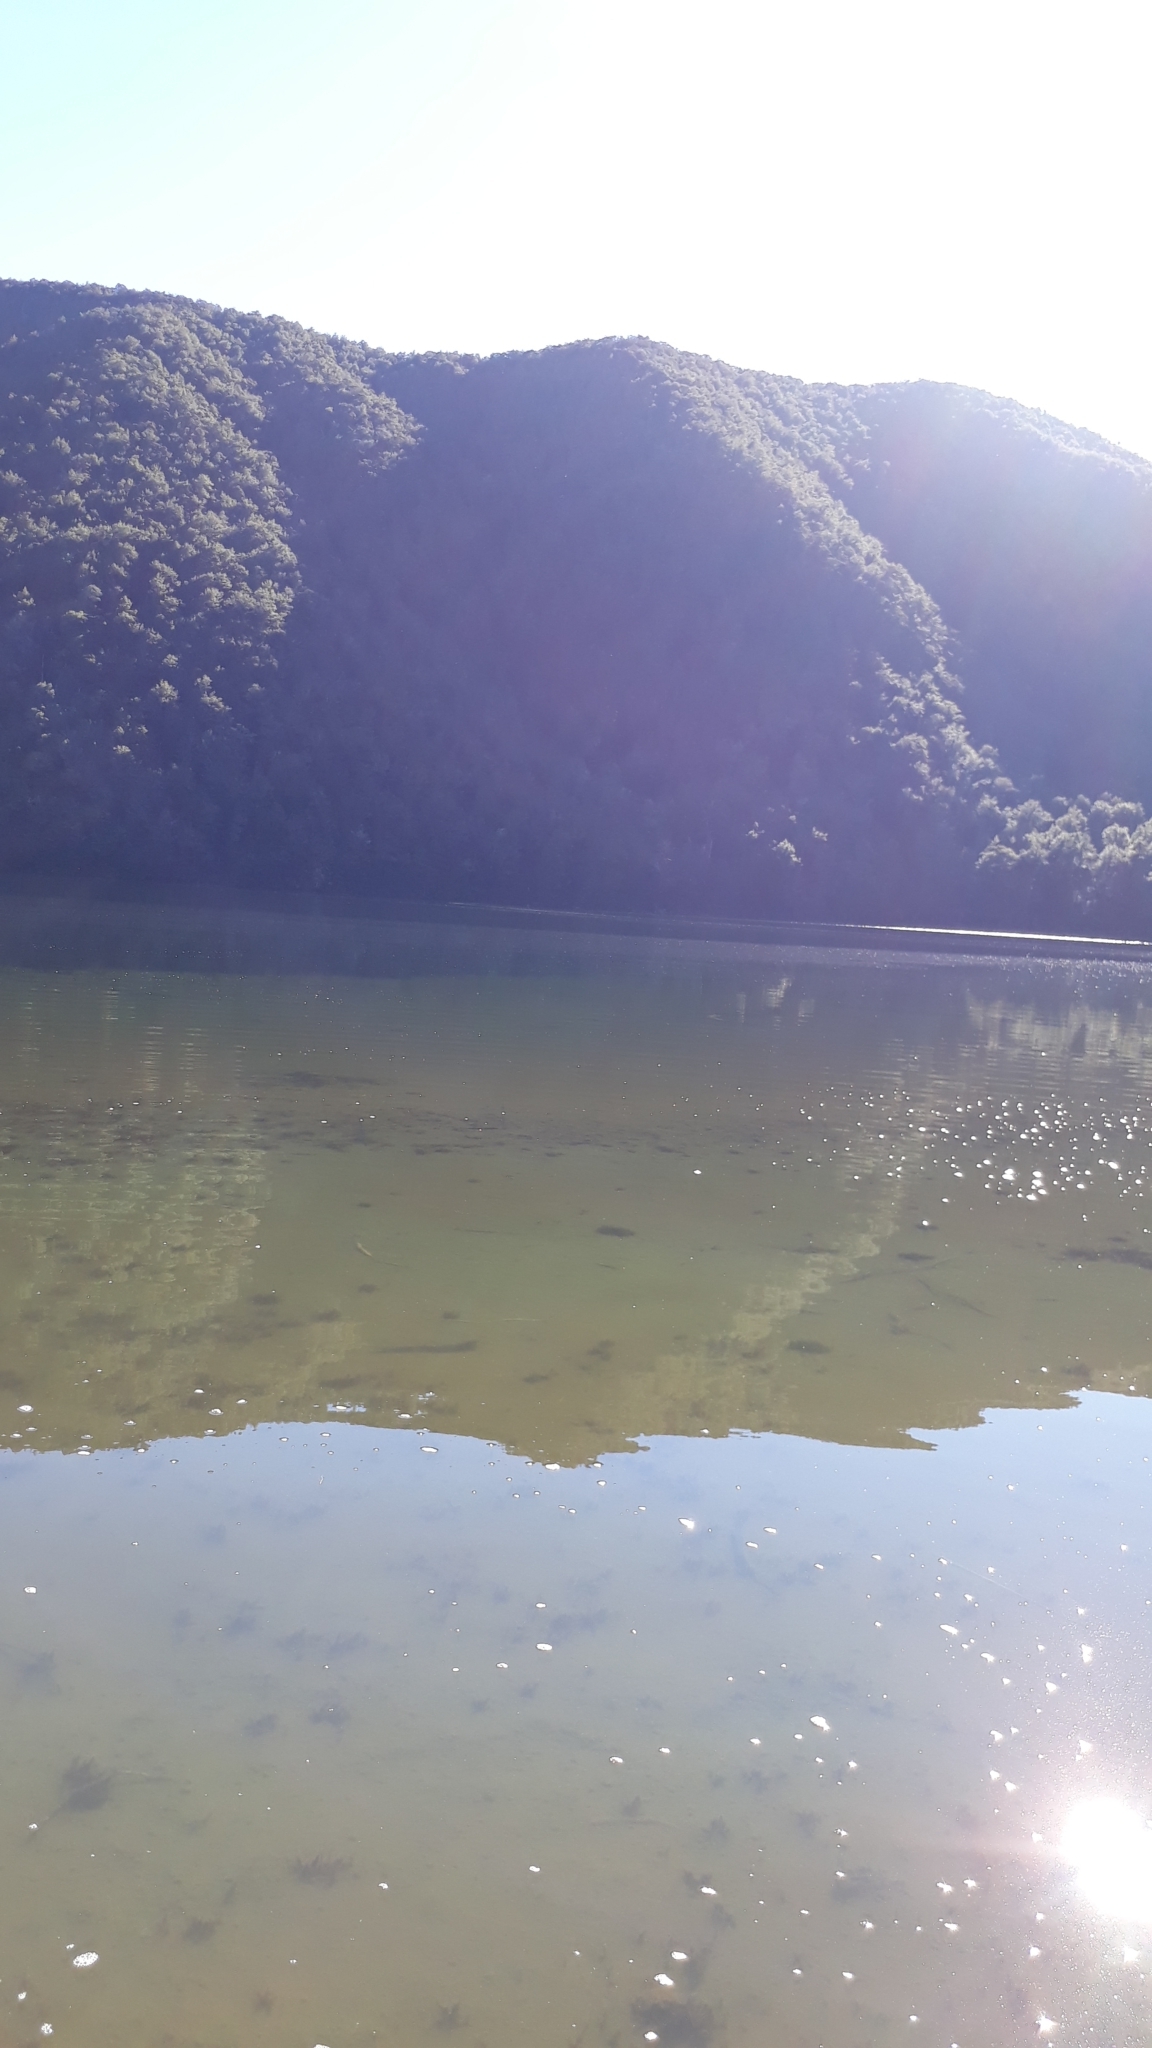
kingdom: Animalia
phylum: Chordata
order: Salmoniformes
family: Salmonidae
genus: Oncorhynchus
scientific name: Oncorhynchus mykiss
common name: Rainbow trout
